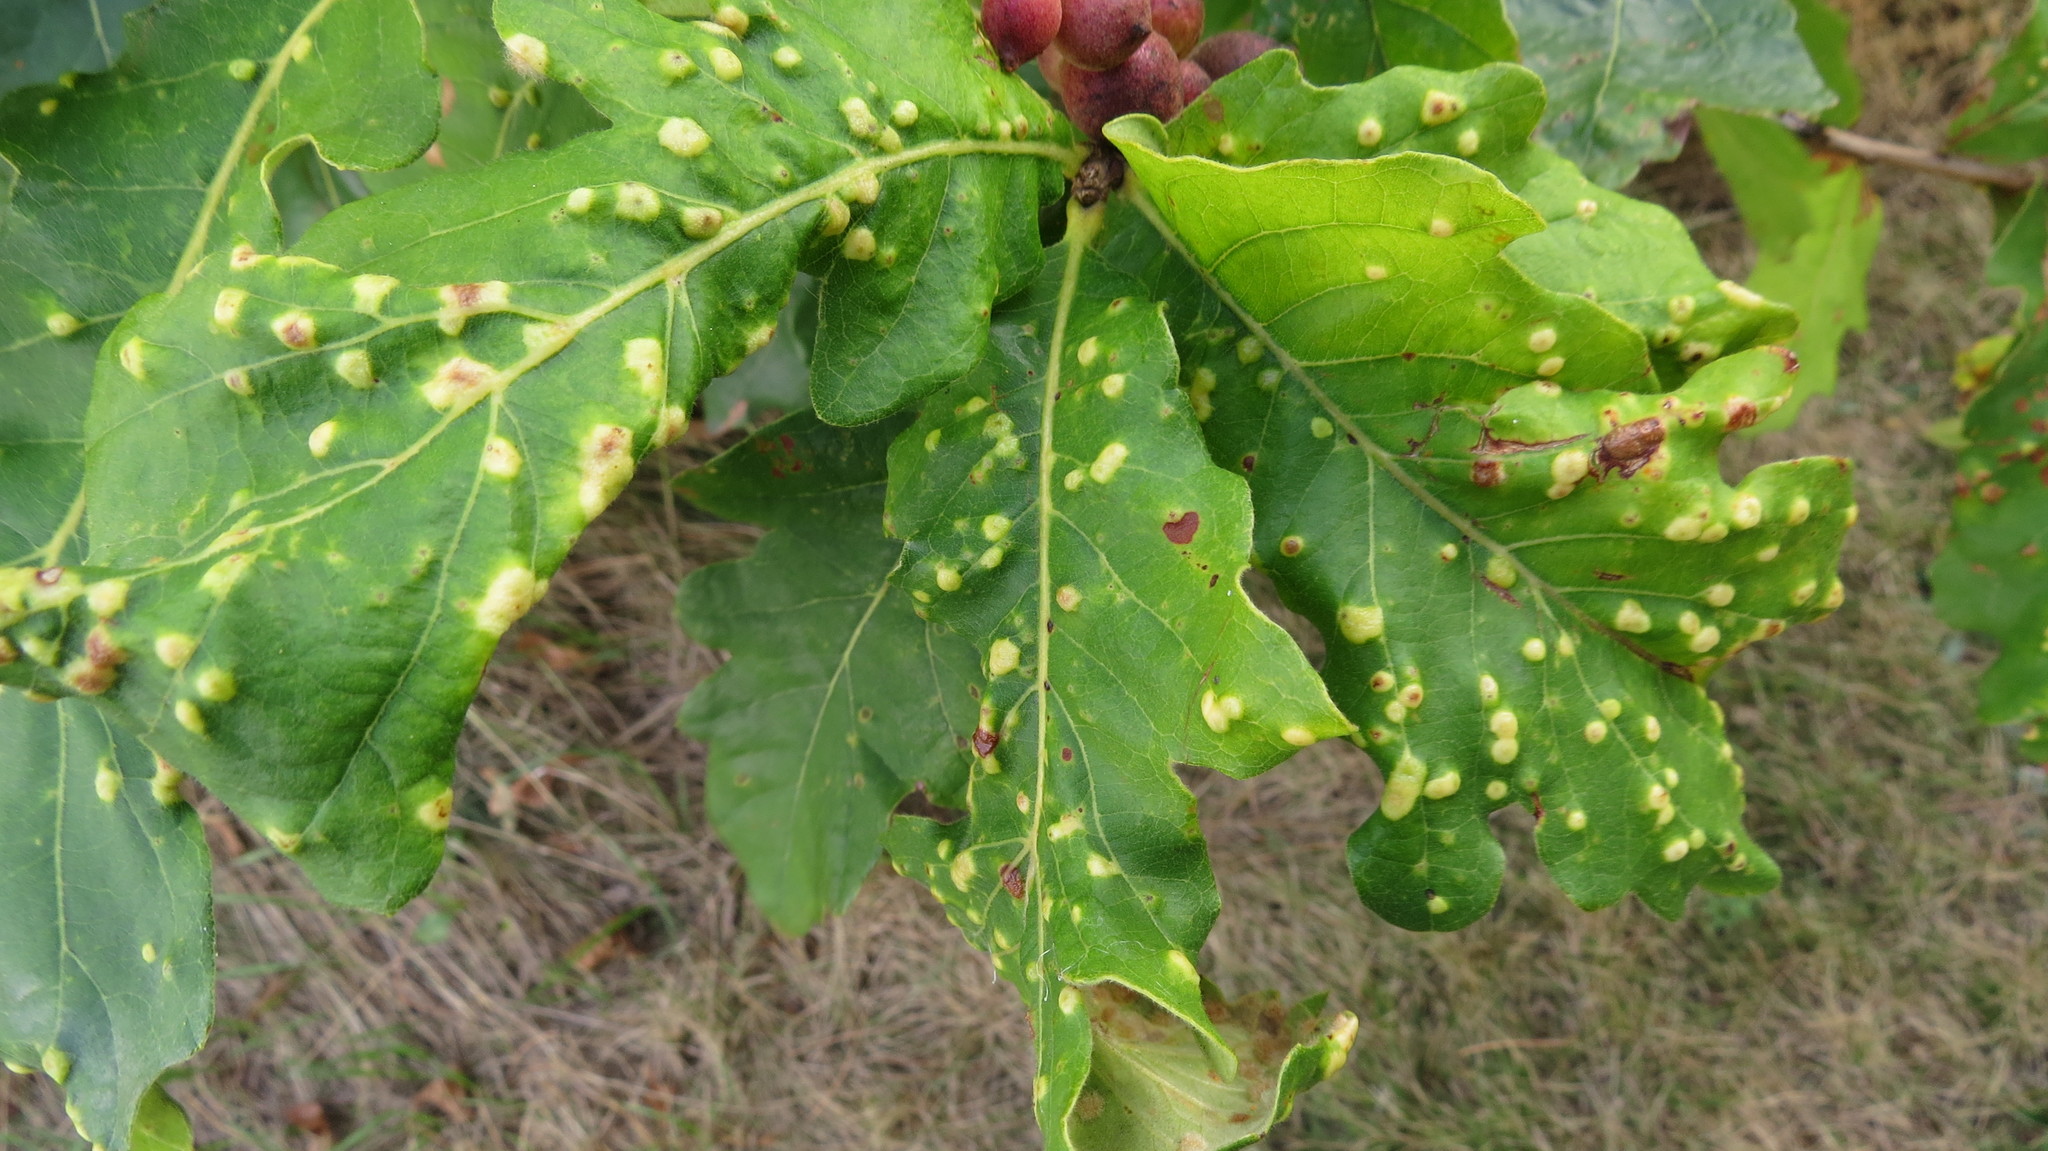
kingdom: Animalia
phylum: Arthropoda
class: Insecta
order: Hymenoptera
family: Cynipidae
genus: Neuroterus
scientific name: Neuroterus quercusverrucarum
